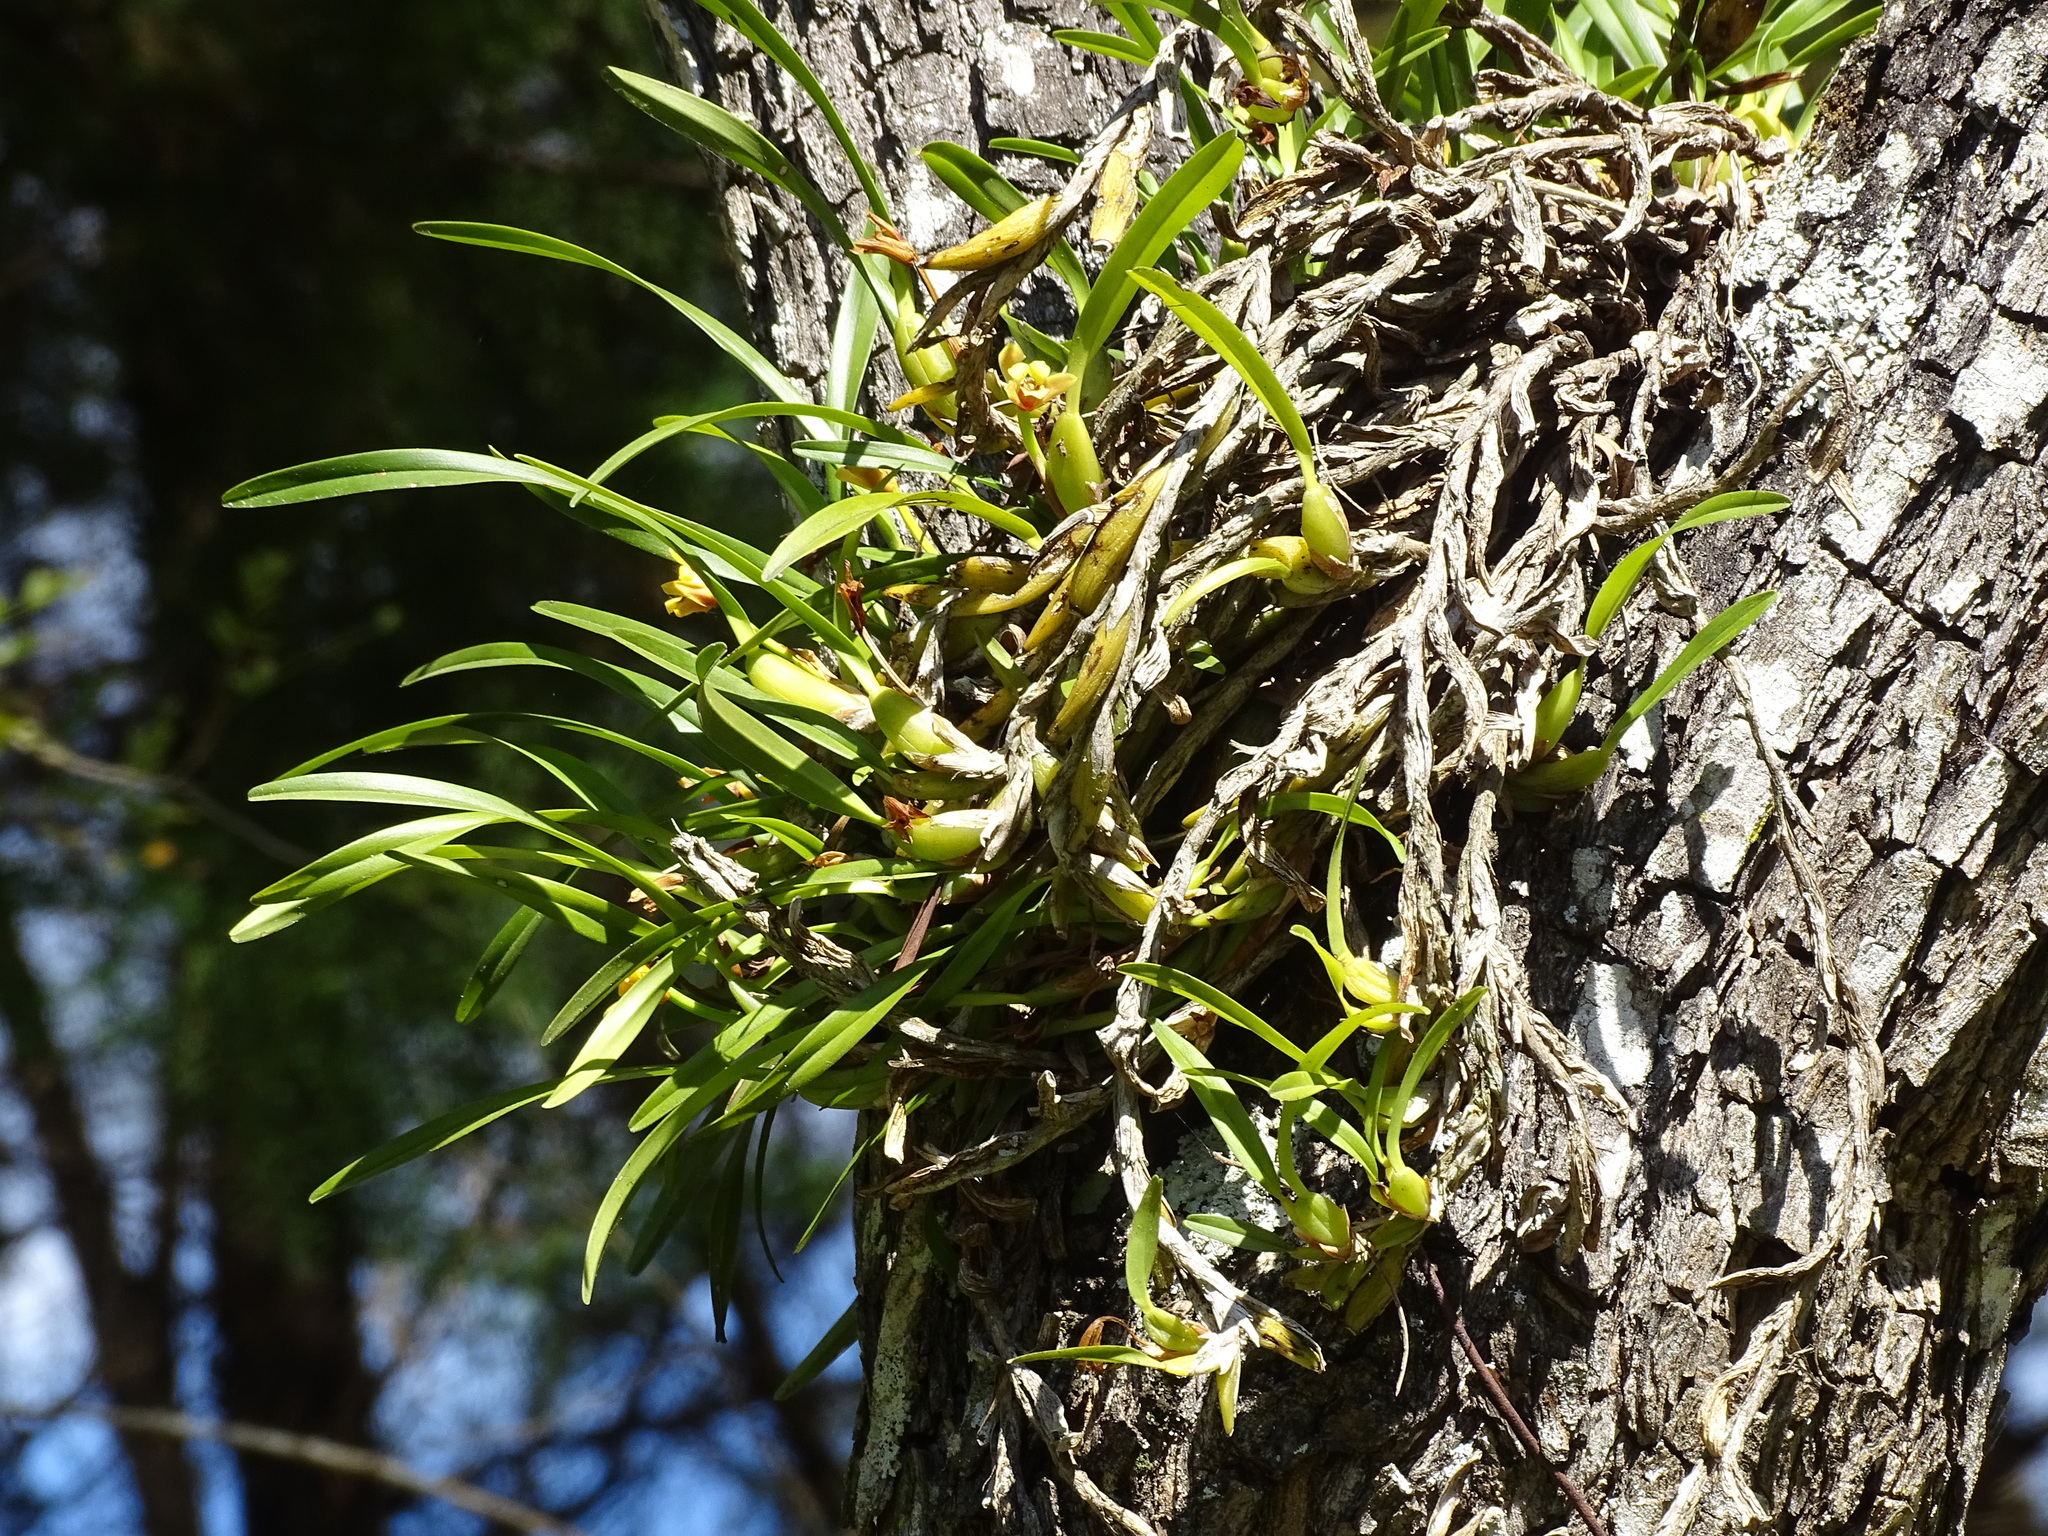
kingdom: Plantae
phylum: Tracheophyta
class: Liliopsida
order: Asparagales
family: Orchidaceae
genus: Maxillaria
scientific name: Maxillaria variabilis
